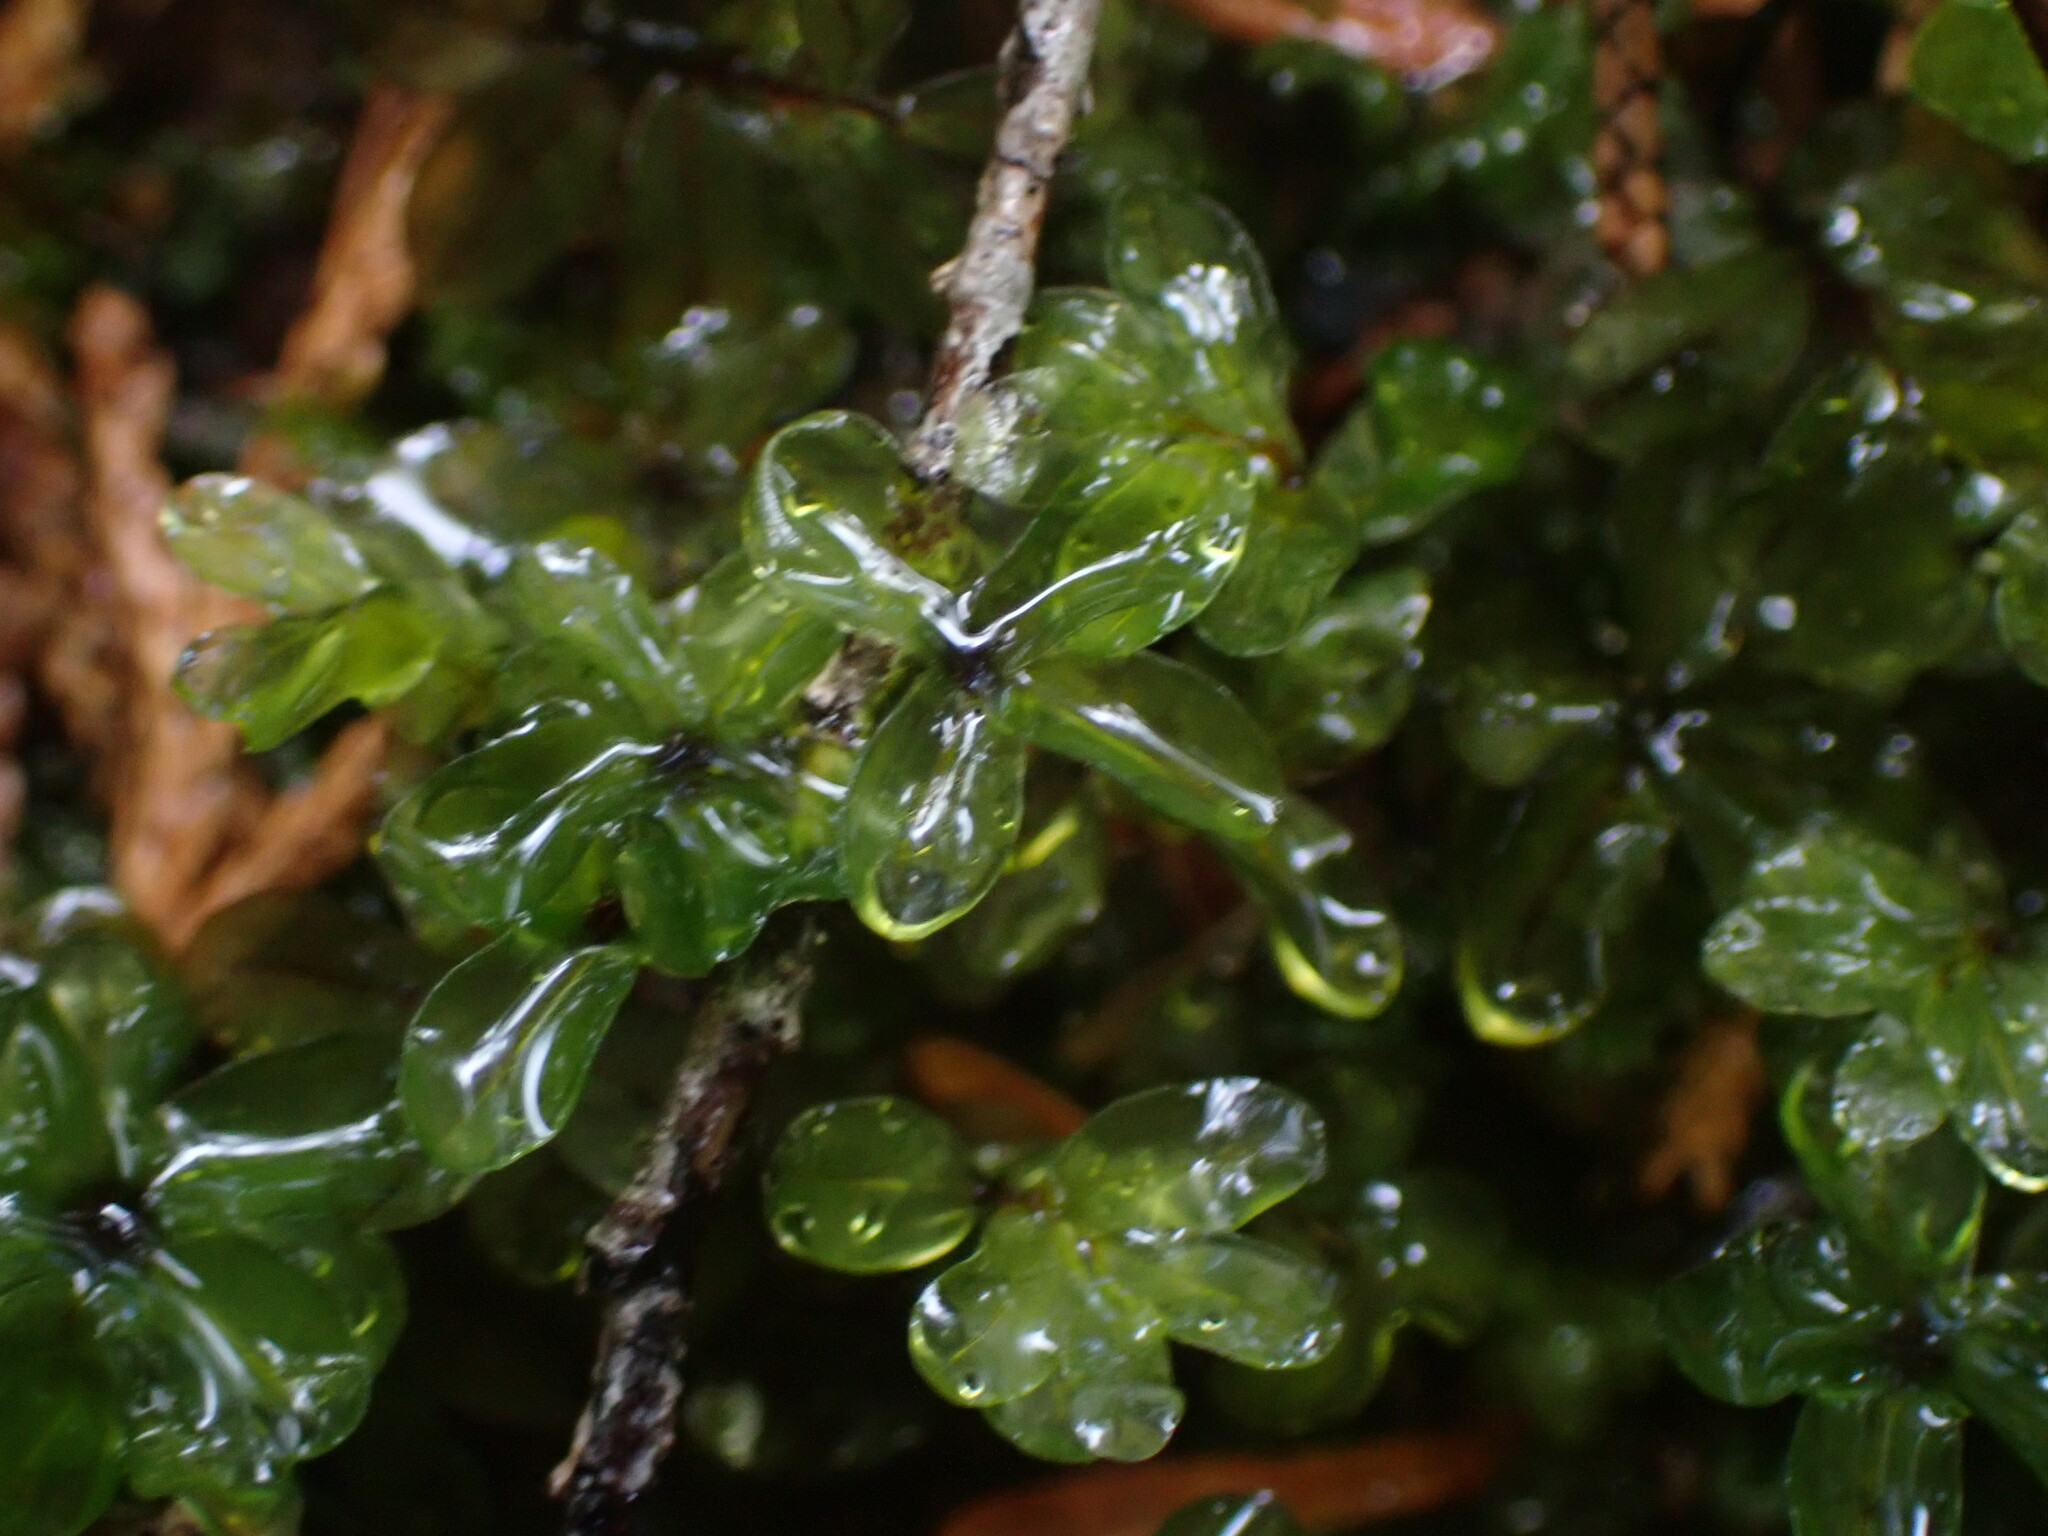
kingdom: Plantae
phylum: Bryophyta
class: Bryopsida
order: Bryales
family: Mniaceae
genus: Rhizomnium
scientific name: Rhizomnium glabrescens
